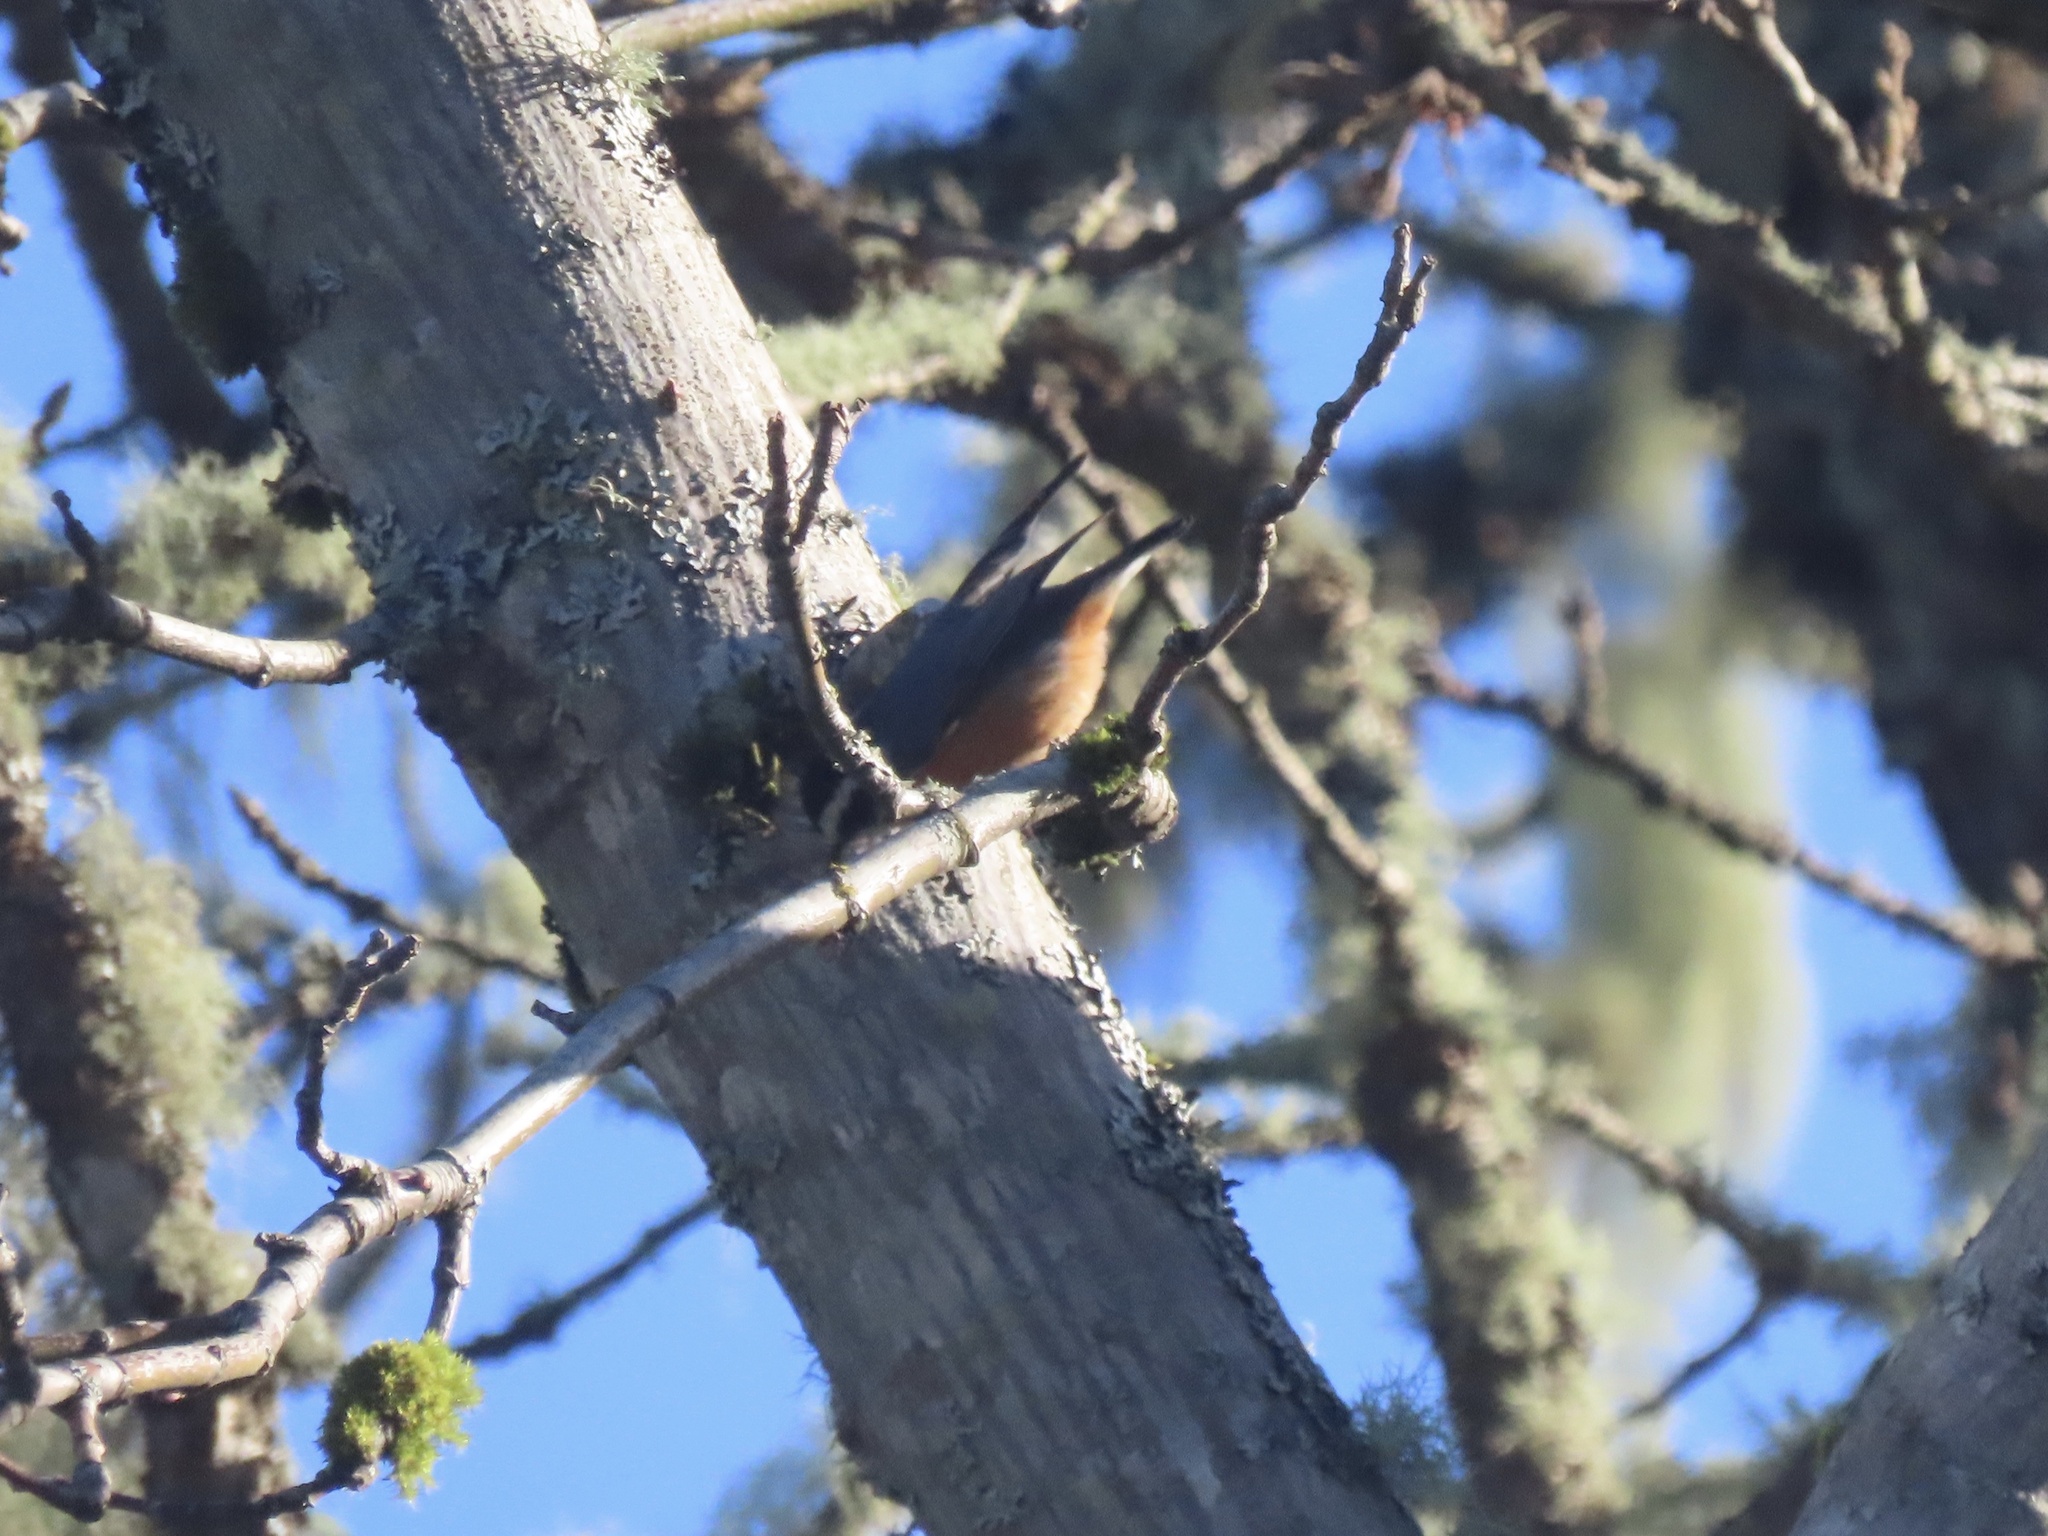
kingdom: Animalia
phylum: Chordata
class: Aves
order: Passeriformes
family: Sittidae
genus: Sitta
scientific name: Sitta canadensis
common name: Red-breasted nuthatch
